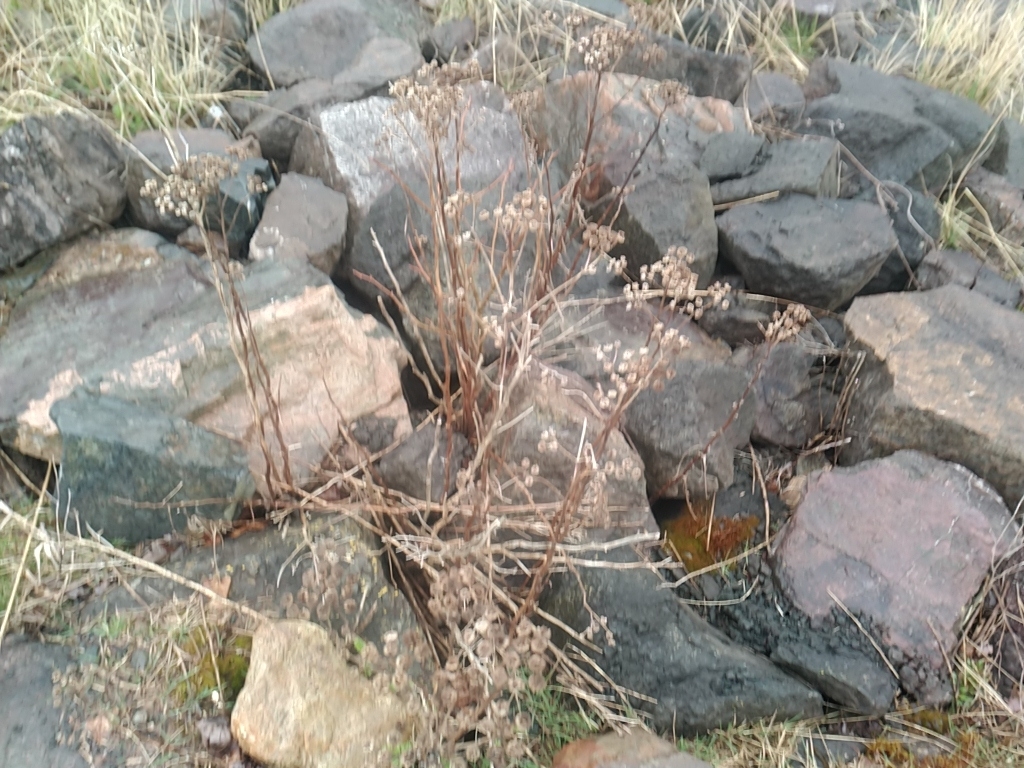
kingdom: Plantae
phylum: Tracheophyta
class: Magnoliopsida
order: Asterales
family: Asteraceae
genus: Tanacetum
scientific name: Tanacetum vulgare
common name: Common tansy
